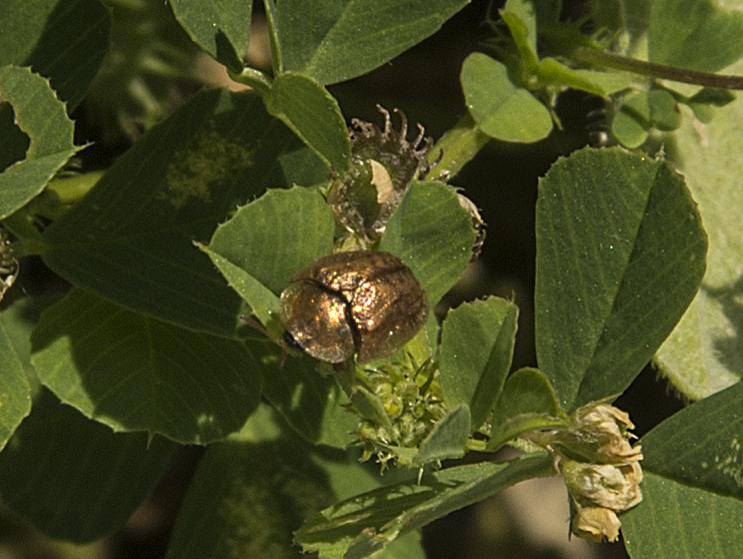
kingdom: Animalia
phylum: Arthropoda
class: Insecta
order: Coleoptera
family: Chrysomelidae
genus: Hypocassida
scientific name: Hypocassida subferruginea
